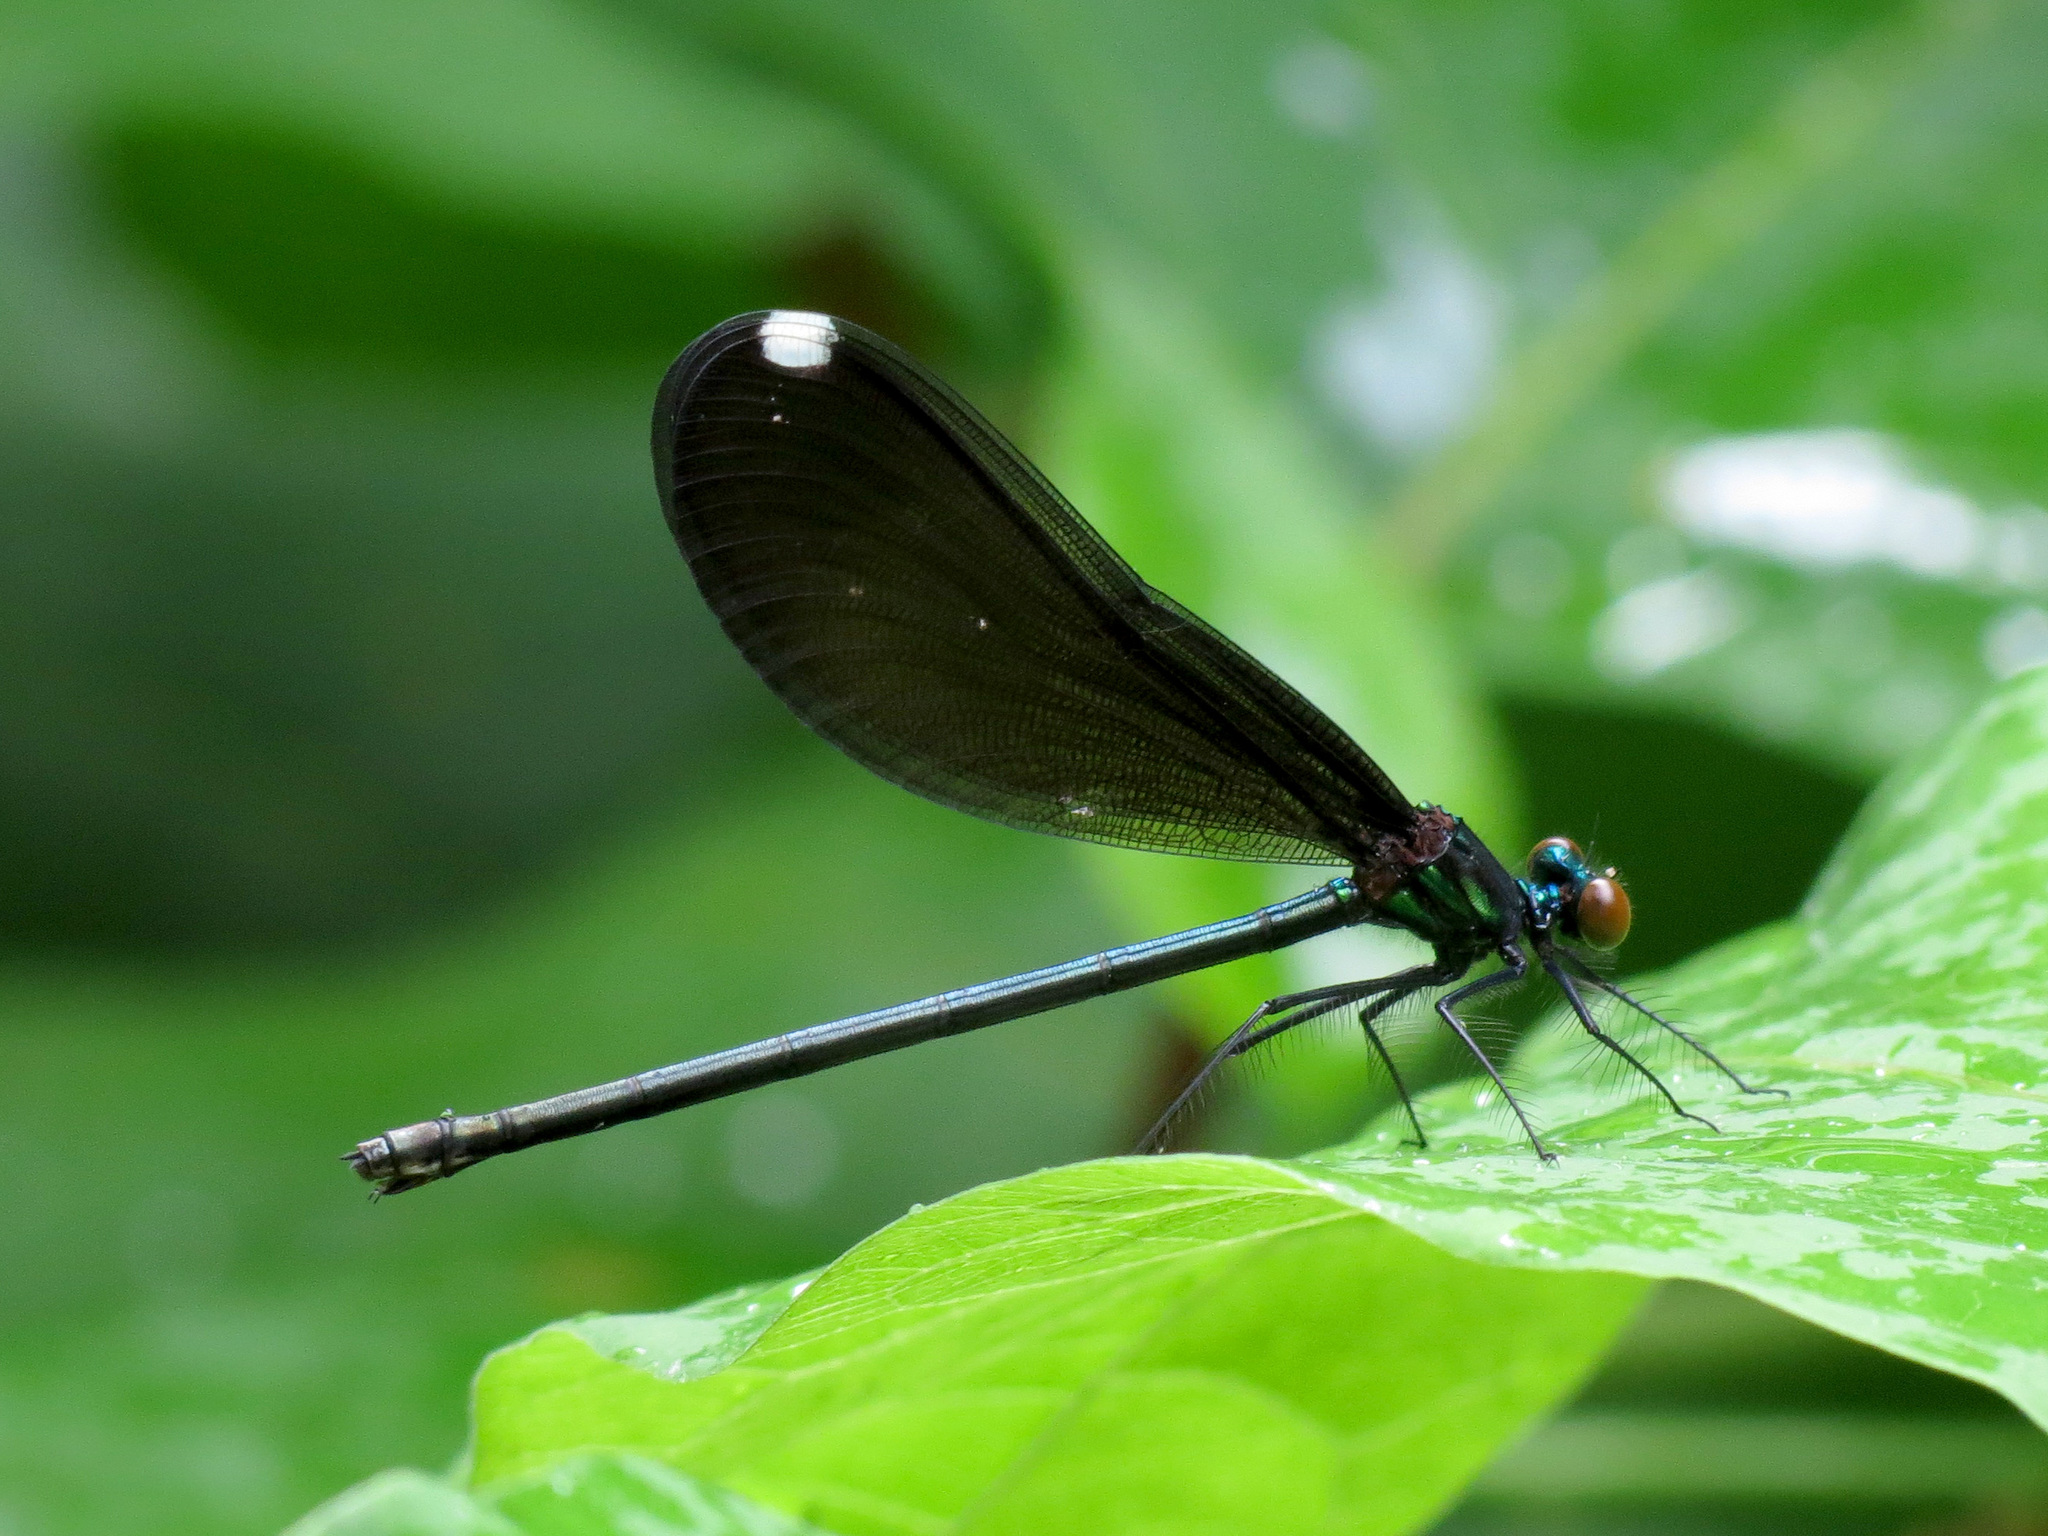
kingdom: Animalia
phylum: Arthropoda
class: Insecta
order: Odonata
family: Calopterygidae
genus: Calopteryx
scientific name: Calopteryx maculata
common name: Ebony jewelwing
